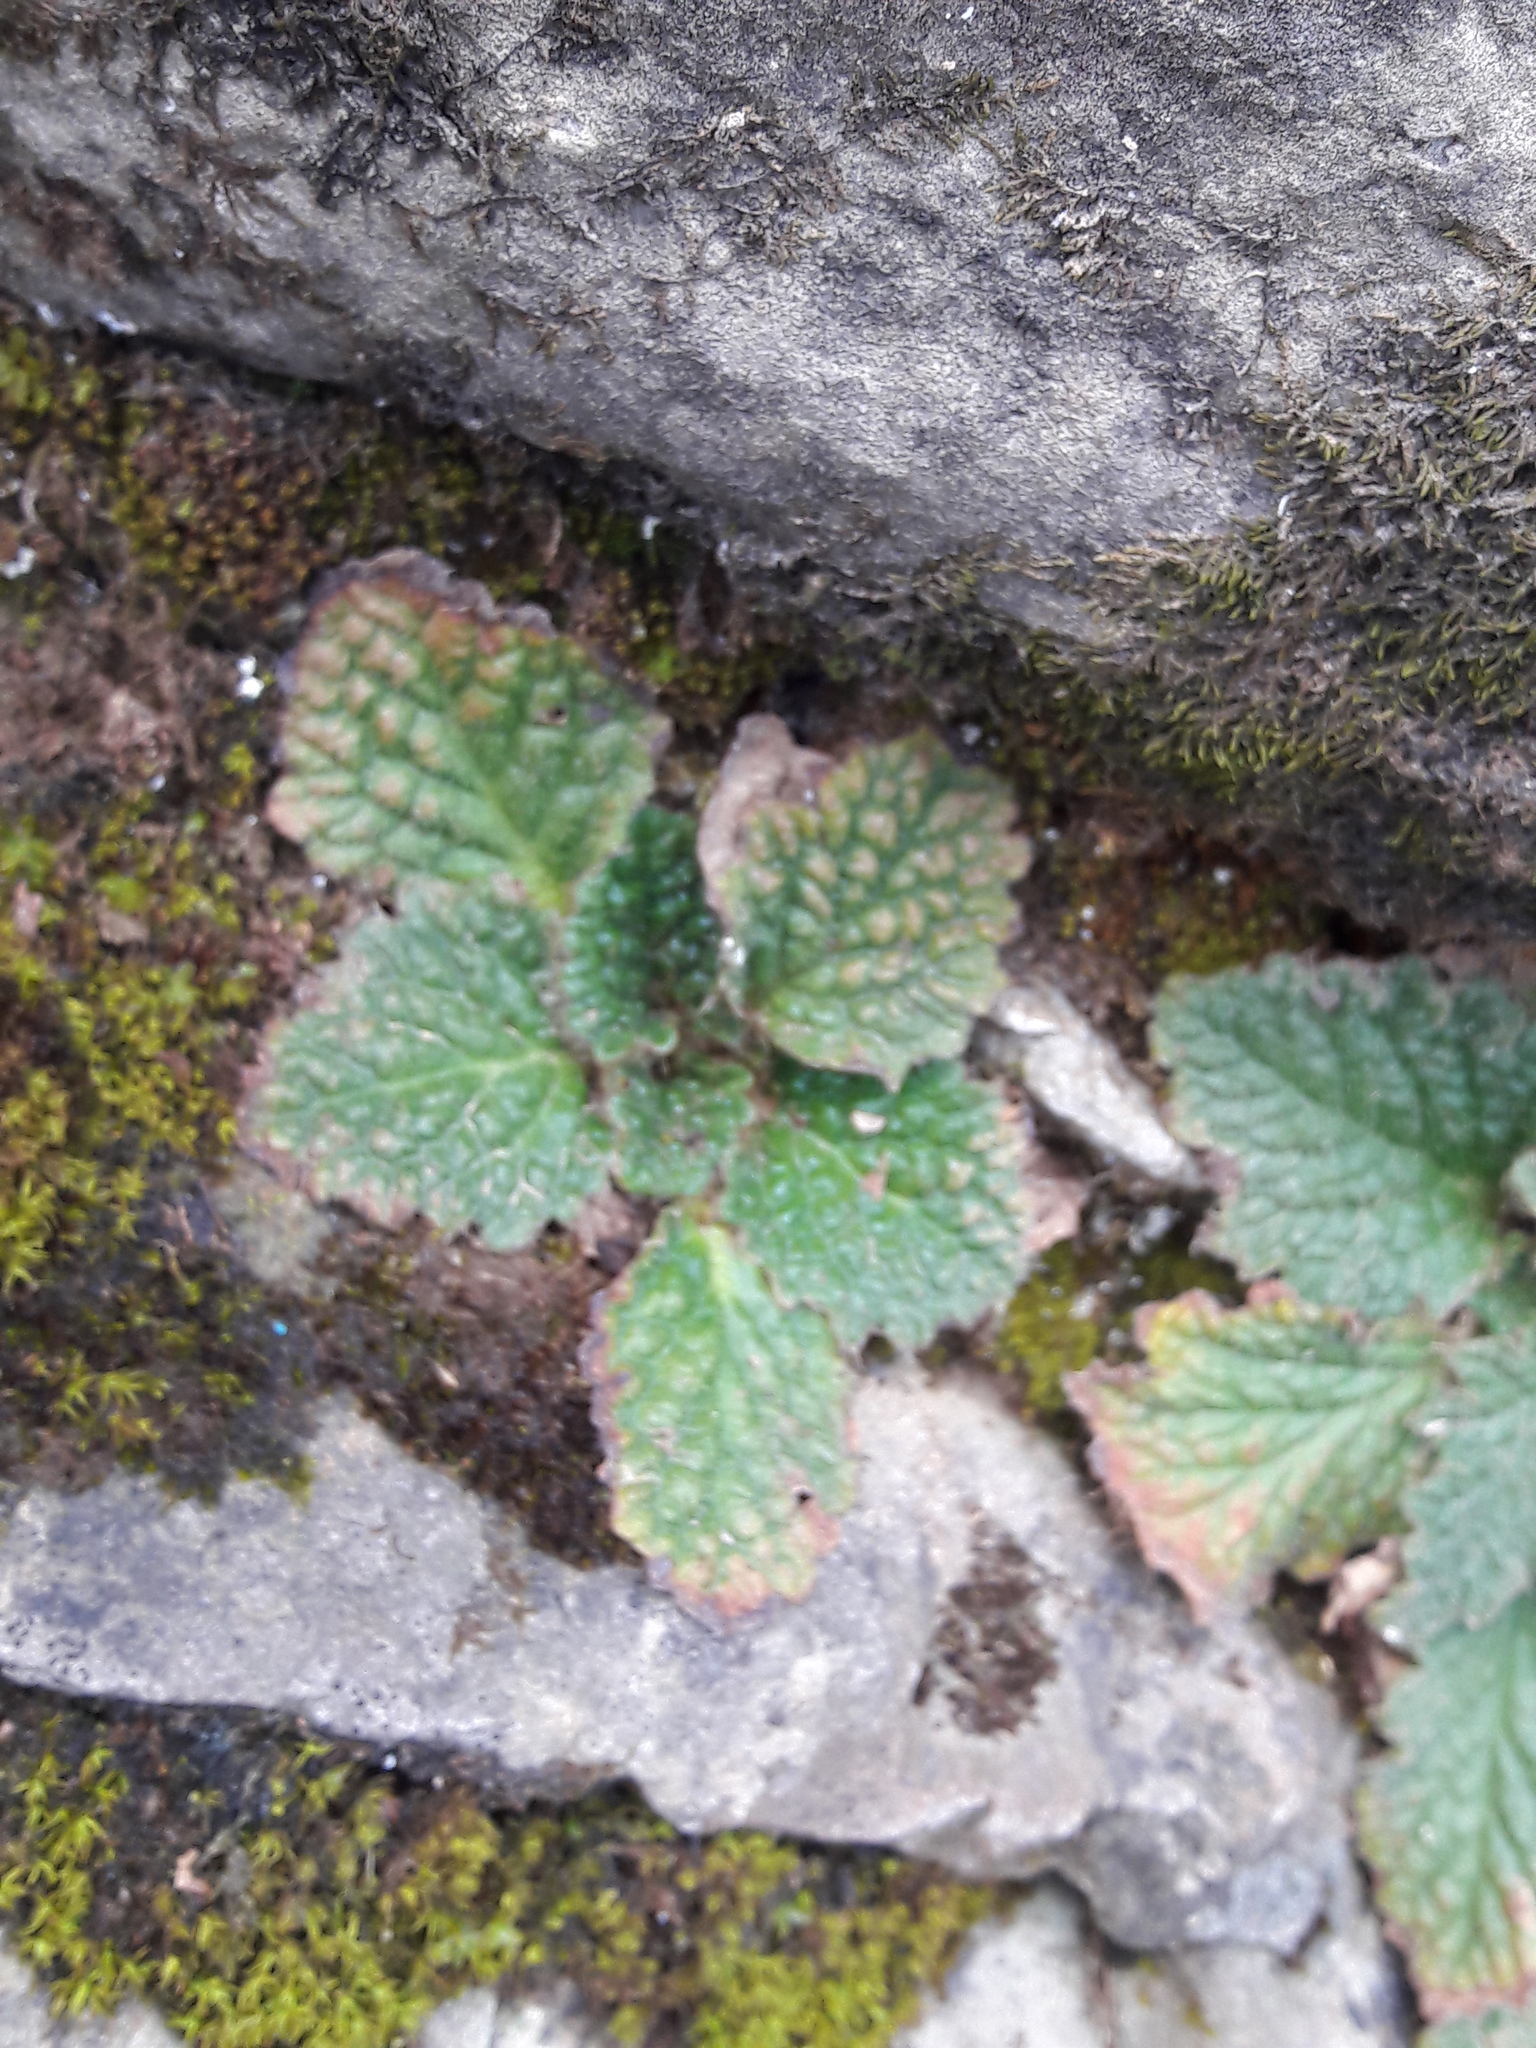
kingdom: Plantae
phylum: Tracheophyta
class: Magnoliopsida
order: Lamiales
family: Gesneriaceae
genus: Ramonda
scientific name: Ramonda myconi
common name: Pyrenean-violet
